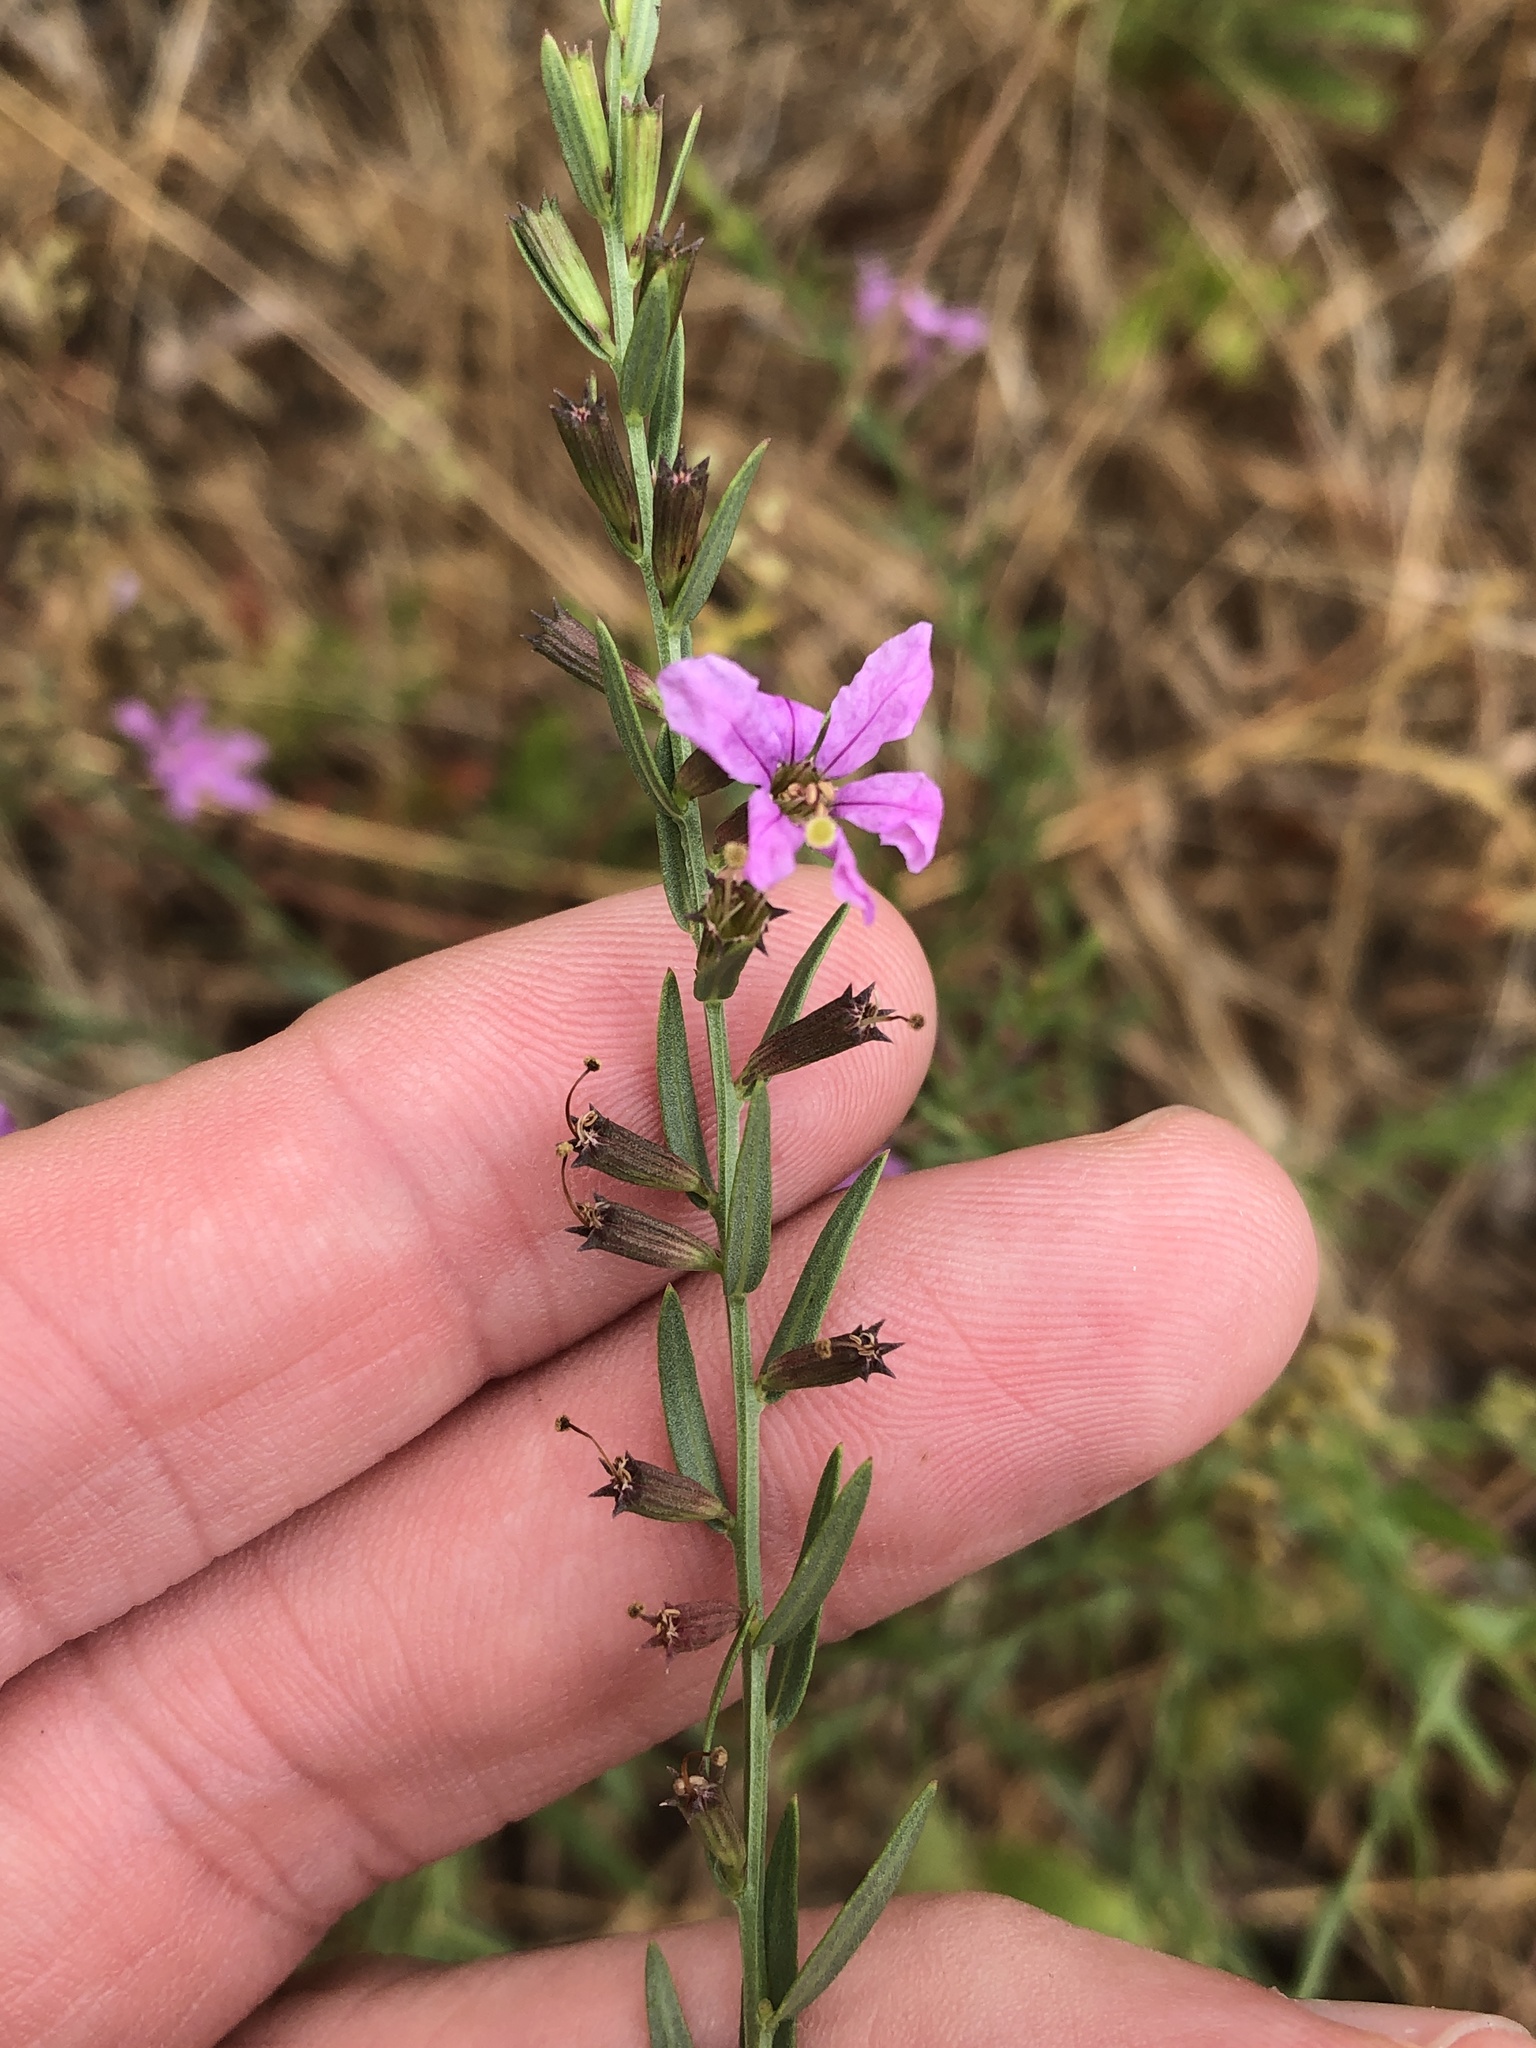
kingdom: Plantae
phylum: Tracheophyta
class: Magnoliopsida
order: Myrtales
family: Lythraceae
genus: Lythrum
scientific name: Lythrum alatum
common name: Winged loosestrife
